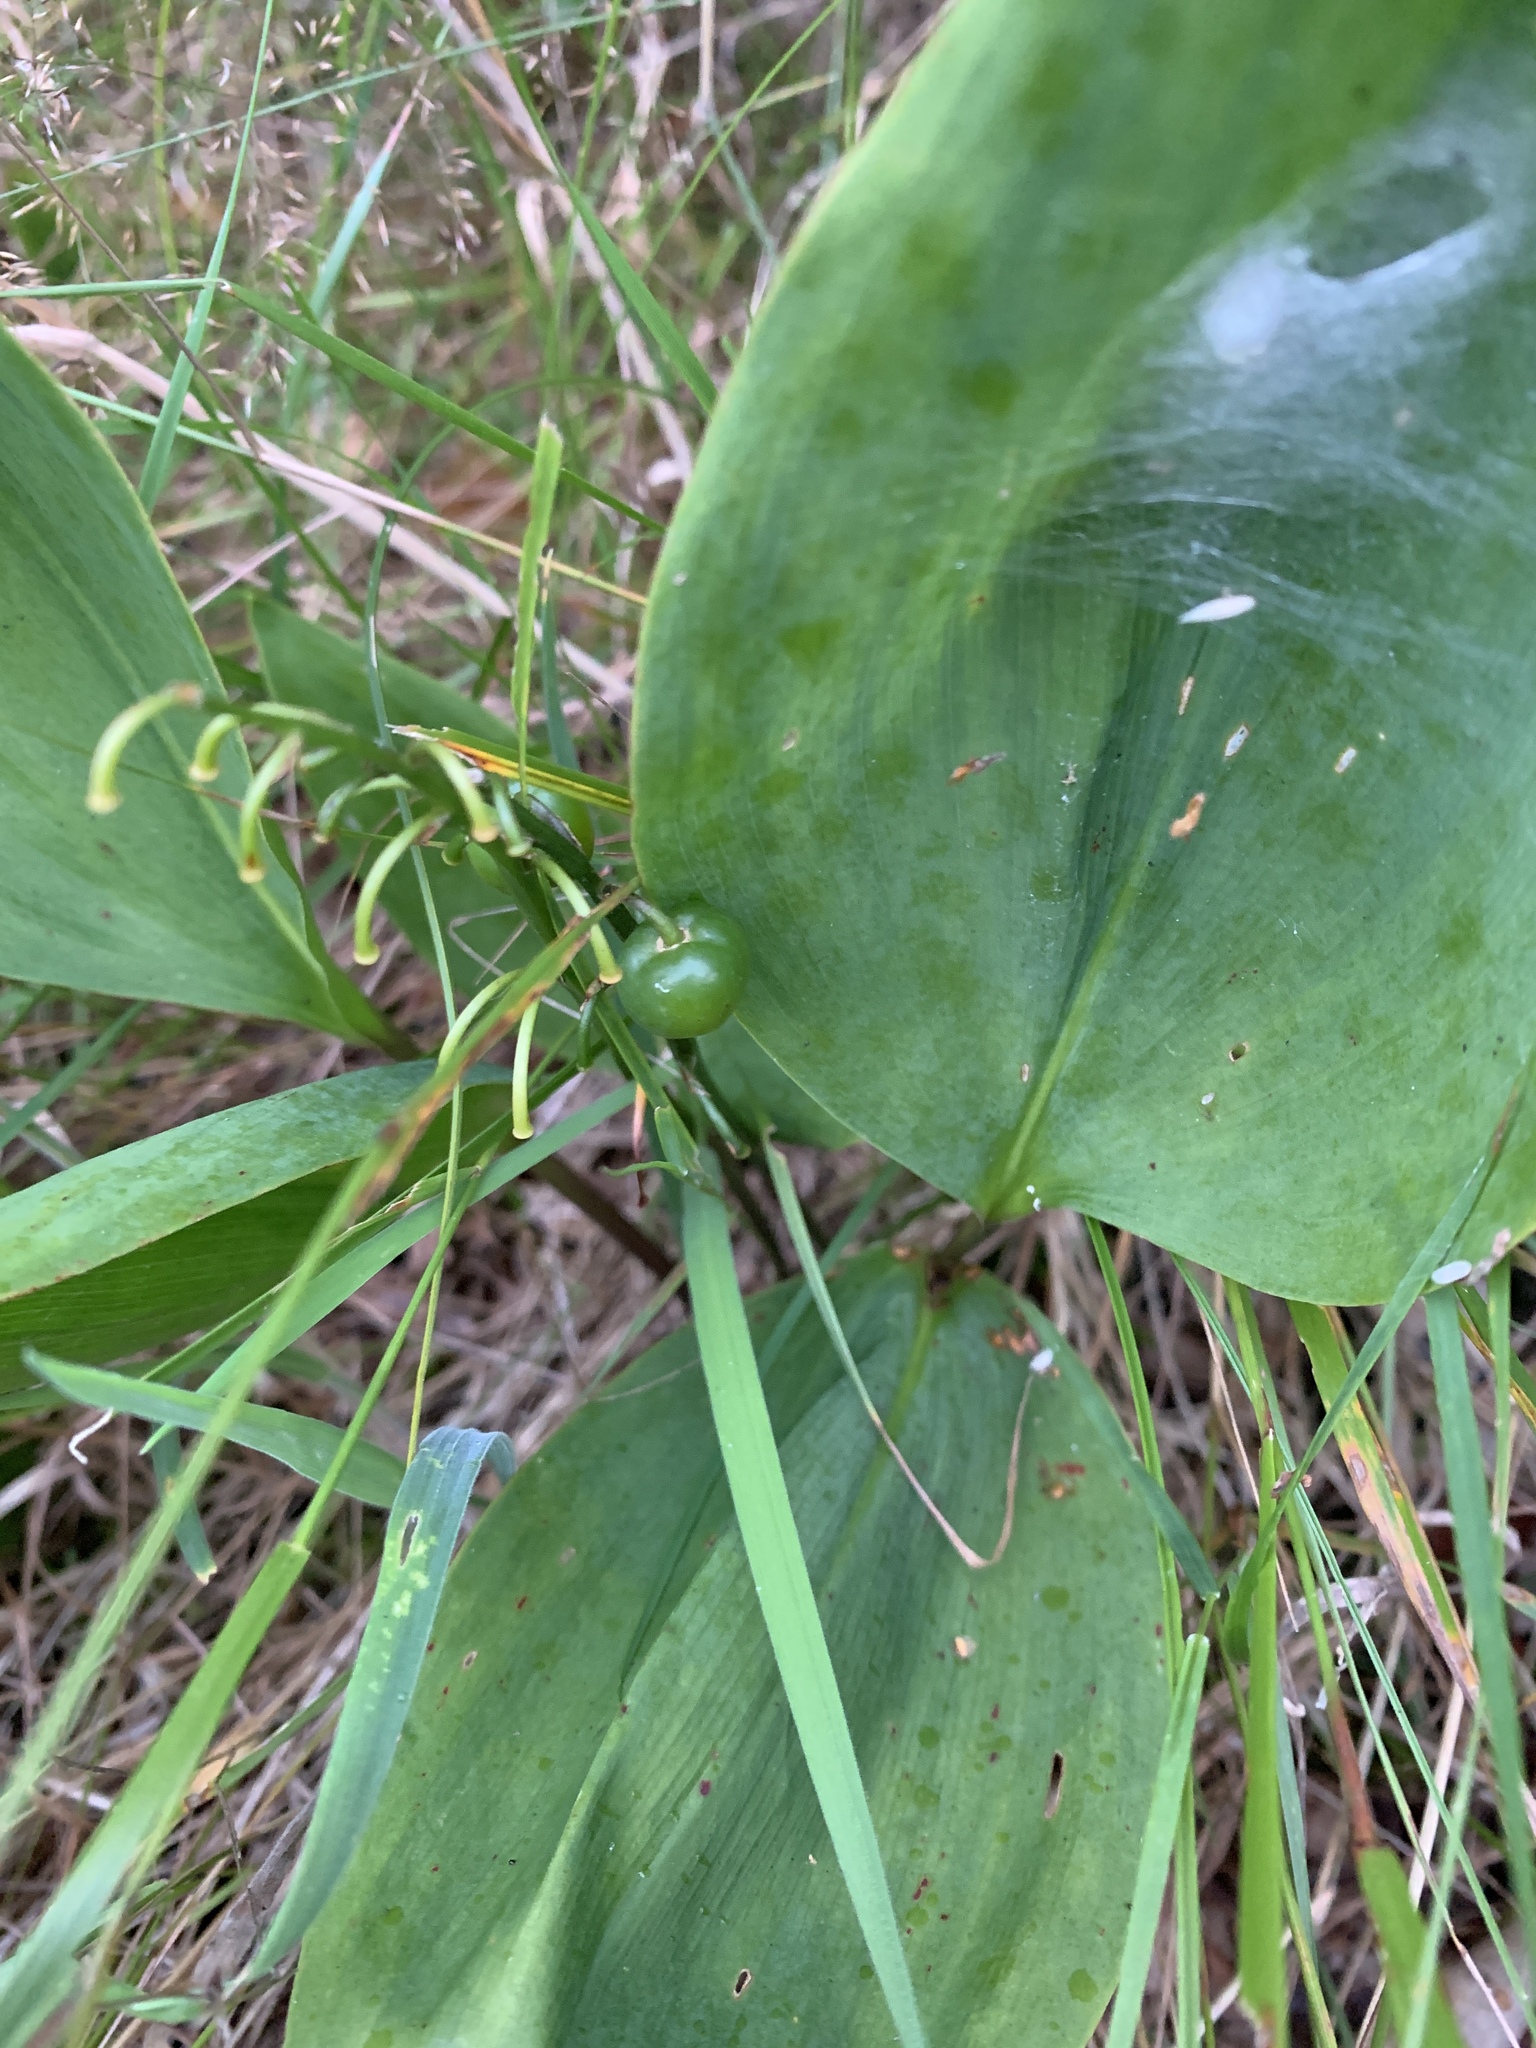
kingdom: Plantae
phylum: Tracheophyta
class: Liliopsida
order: Asparagales
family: Asparagaceae
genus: Convallaria
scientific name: Convallaria majalis
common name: Lily-of-the-valley
